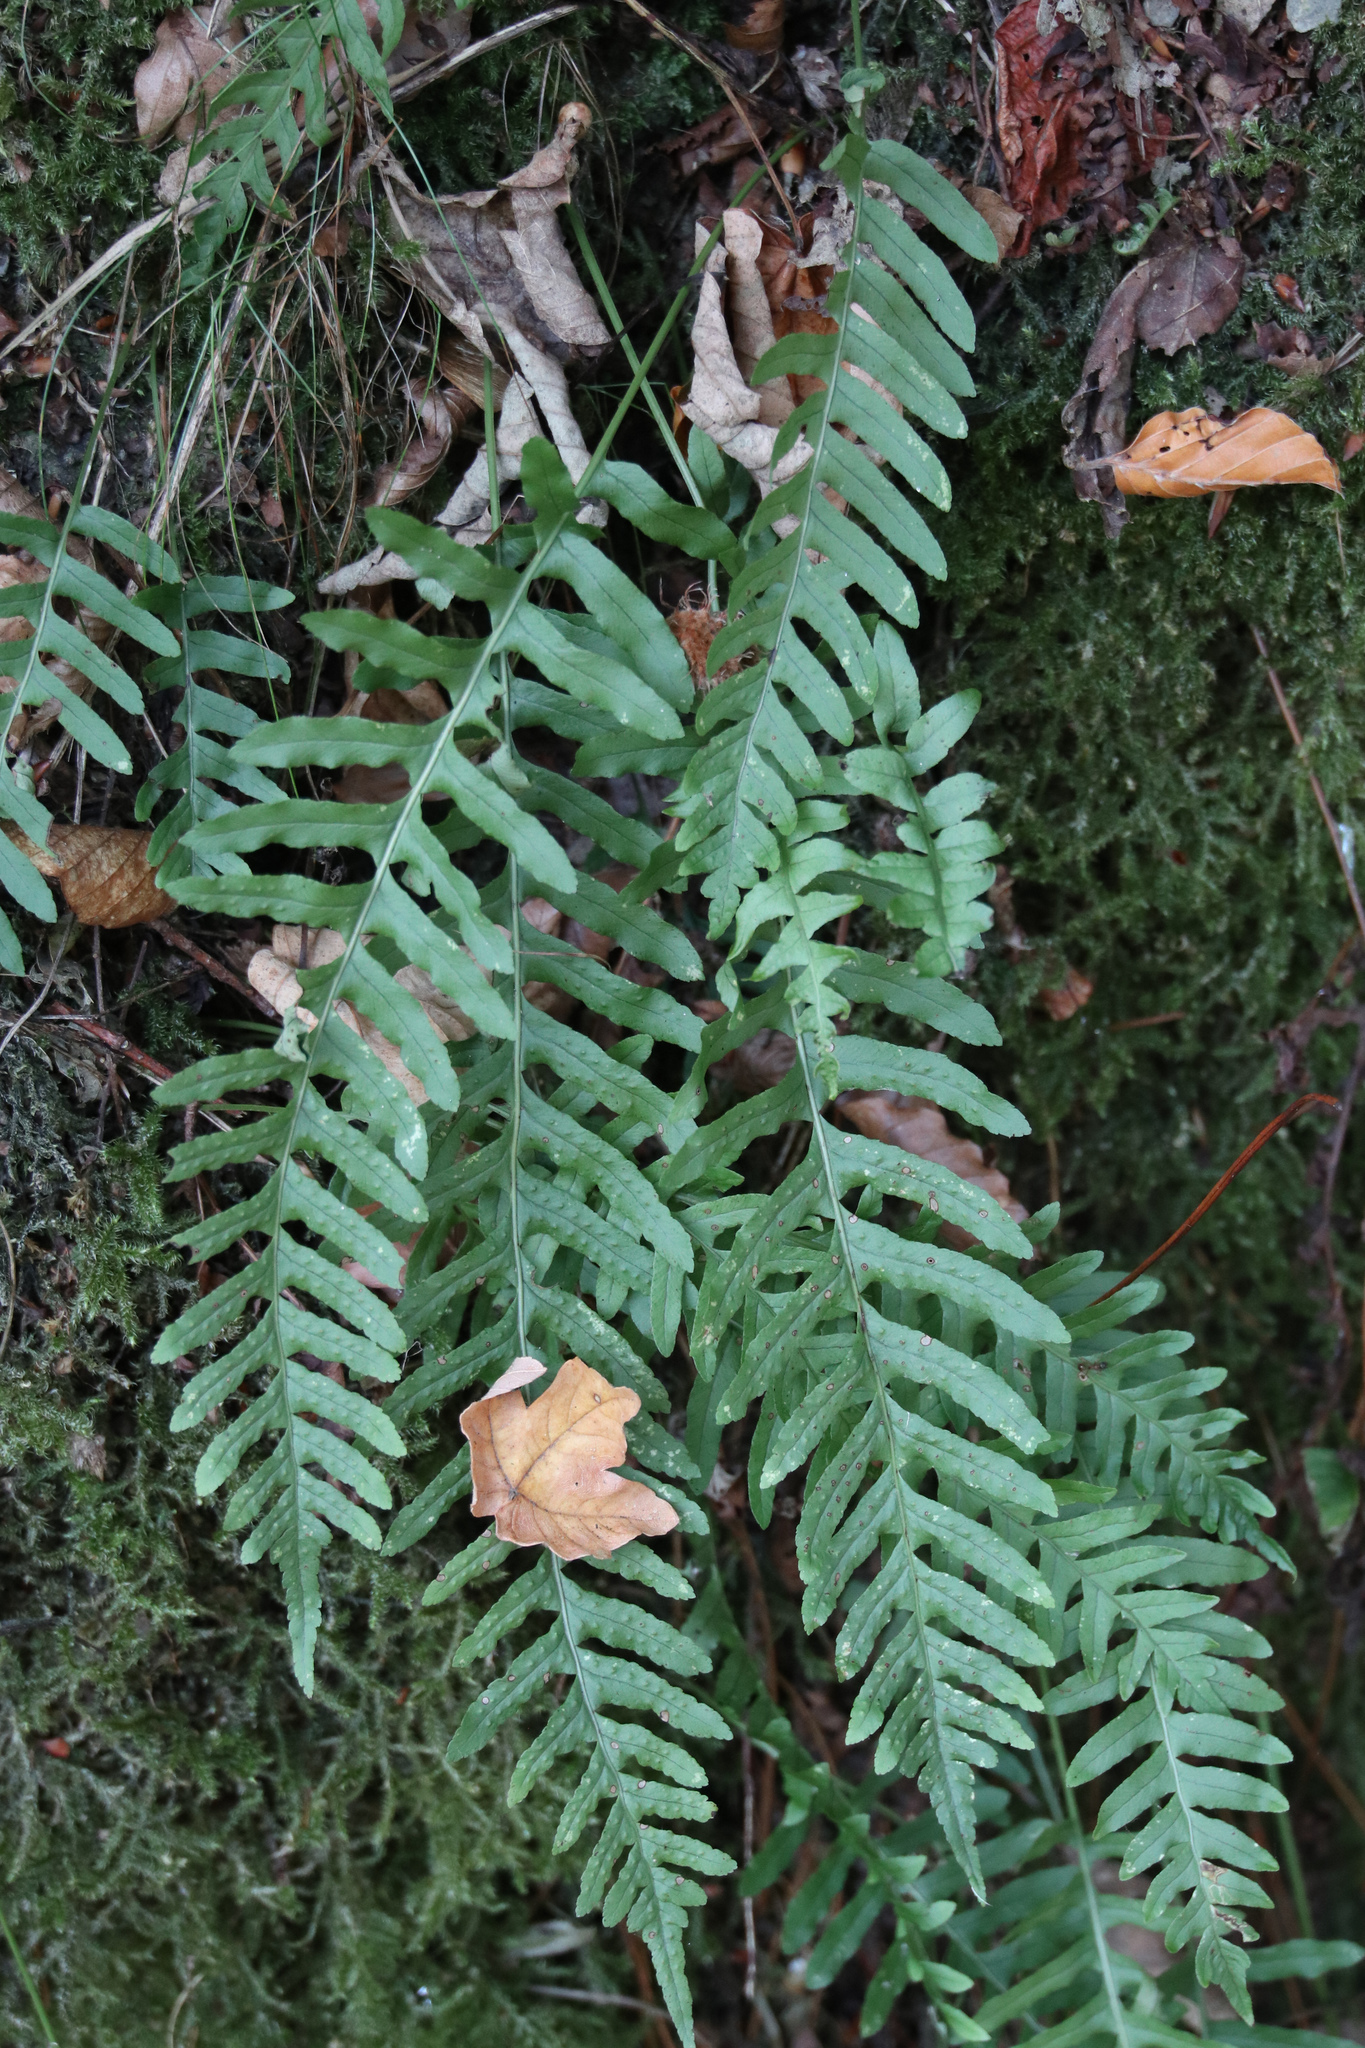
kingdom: Plantae
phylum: Tracheophyta
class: Polypodiopsida
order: Polypodiales
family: Polypodiaceae
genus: Polypodium
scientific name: Polypodium interjectum
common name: Intermediate polypody
